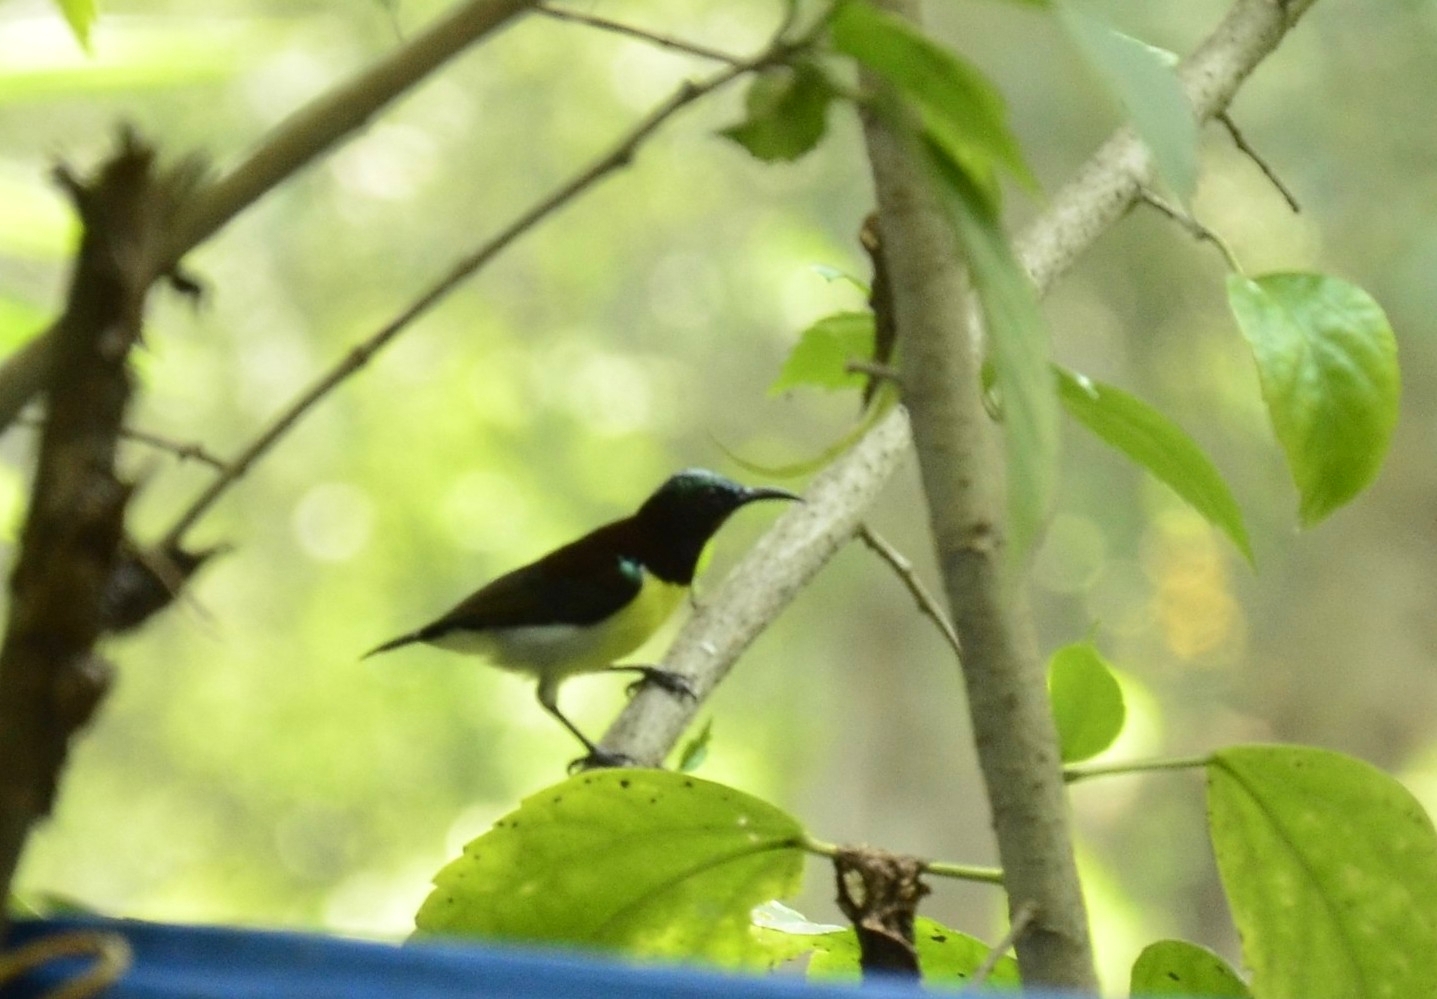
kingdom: Animalia
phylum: Chordata
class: Aves
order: Passeriformes
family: Nectariniidae
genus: Leptocoma
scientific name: Leptocoma zeylonica
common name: Purple-rumped sunbird
